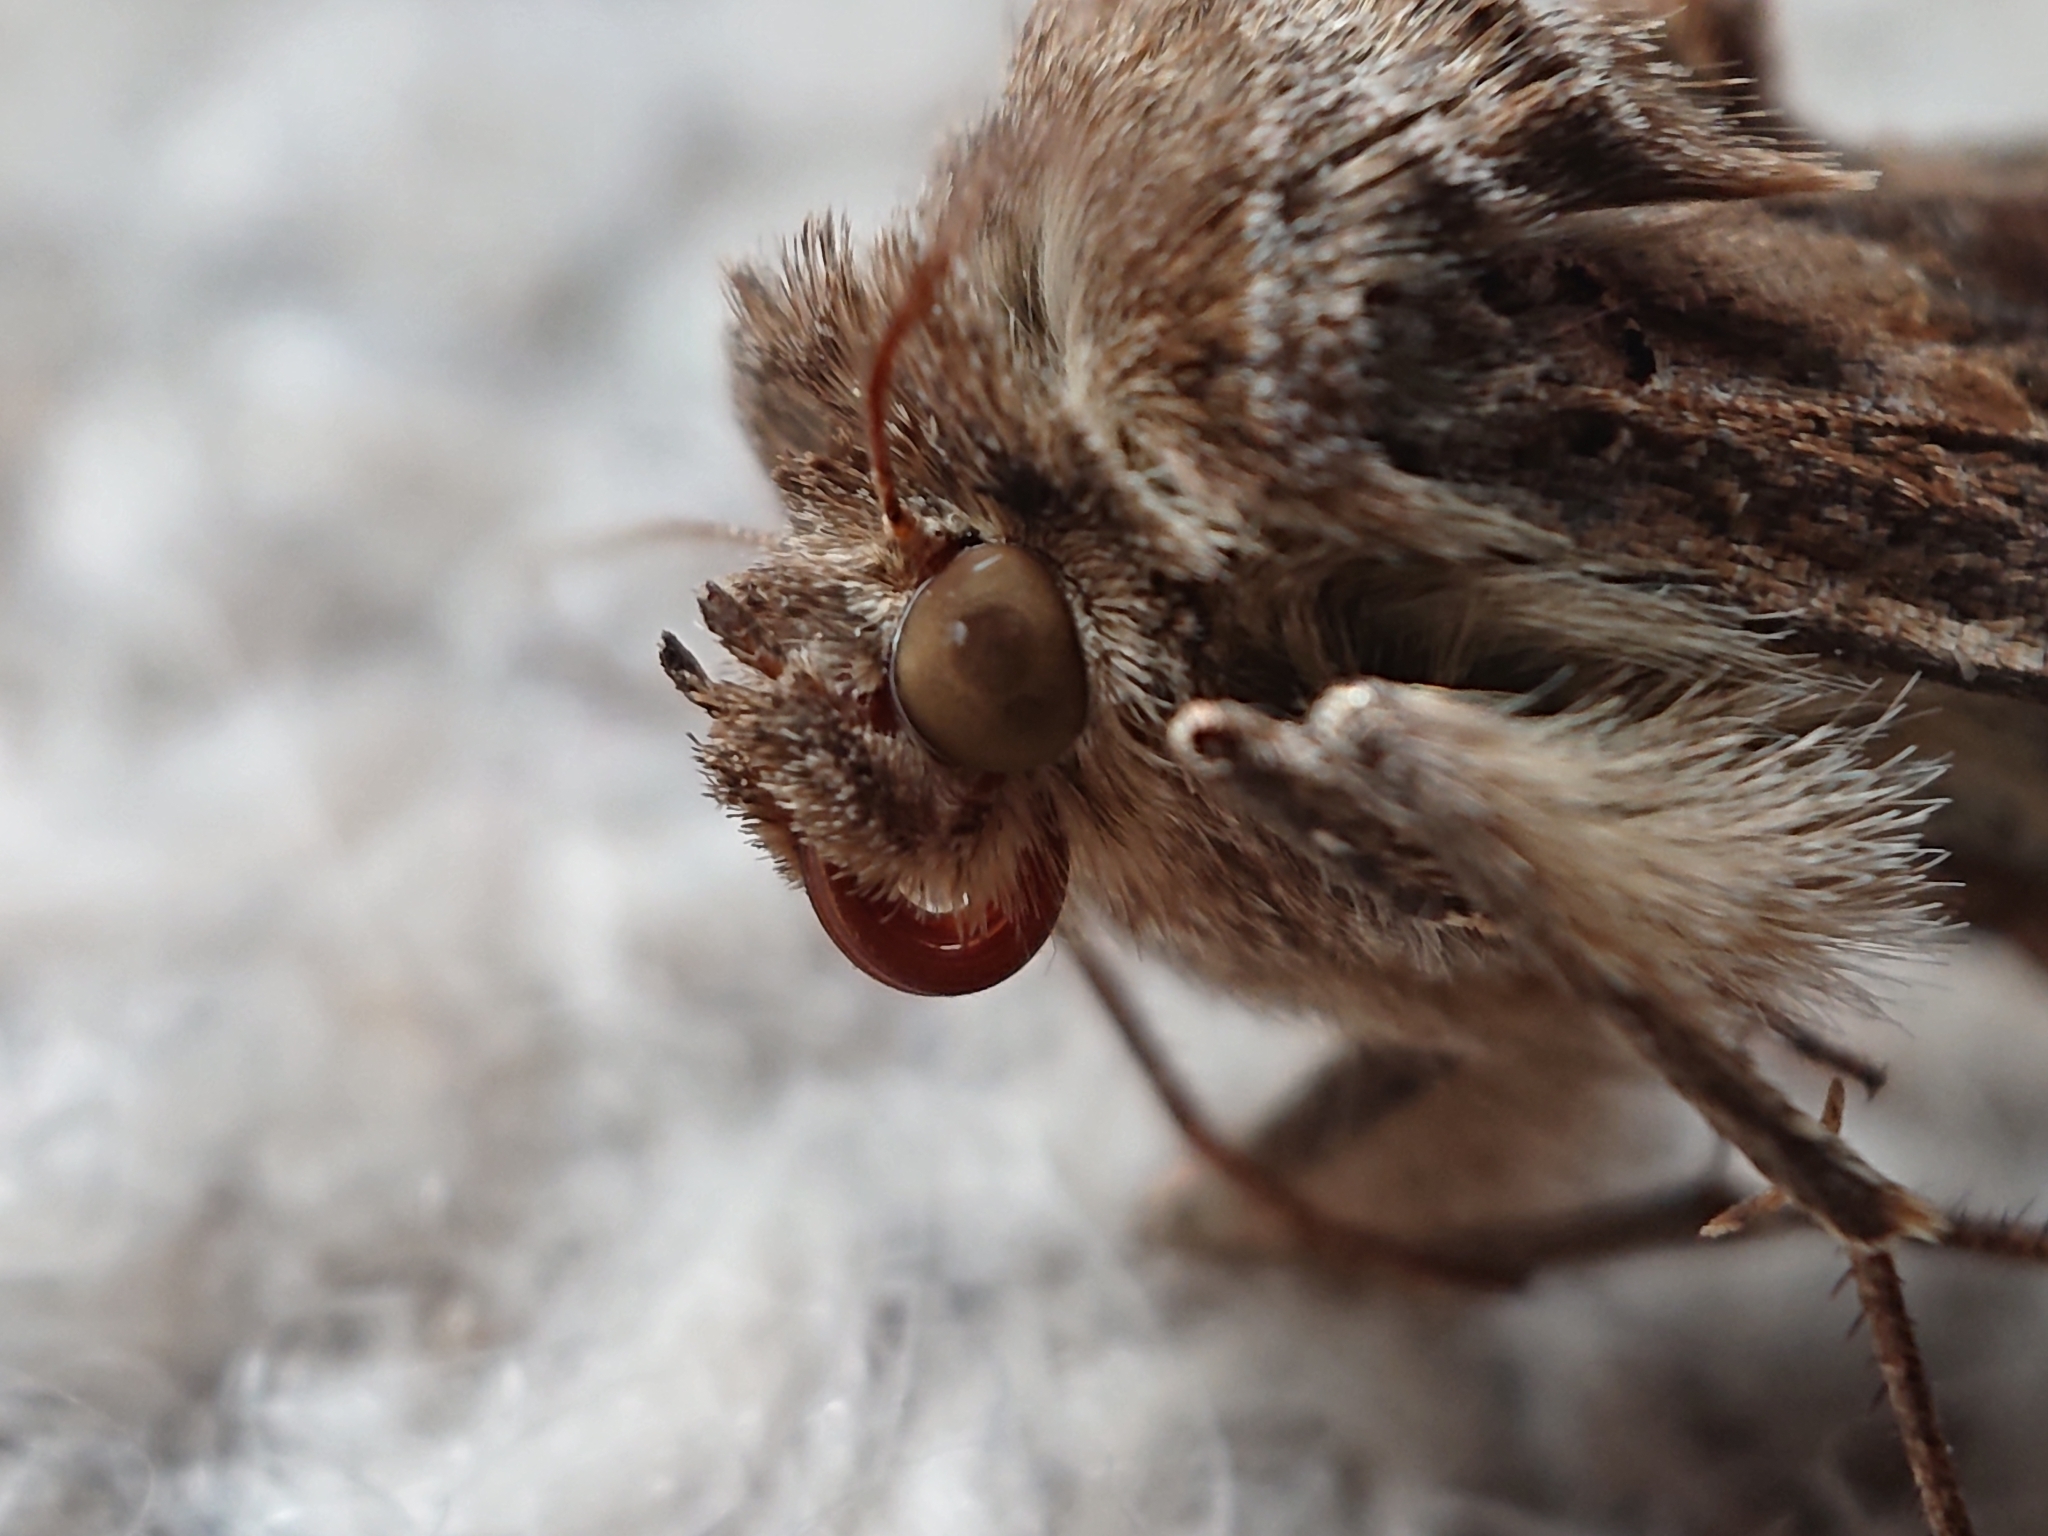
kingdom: Animalia
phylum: Arthropoda
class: Insecta
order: Lepidoptera
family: Noctuidae
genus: Autographa
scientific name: Autographa gamma
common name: Silver y
